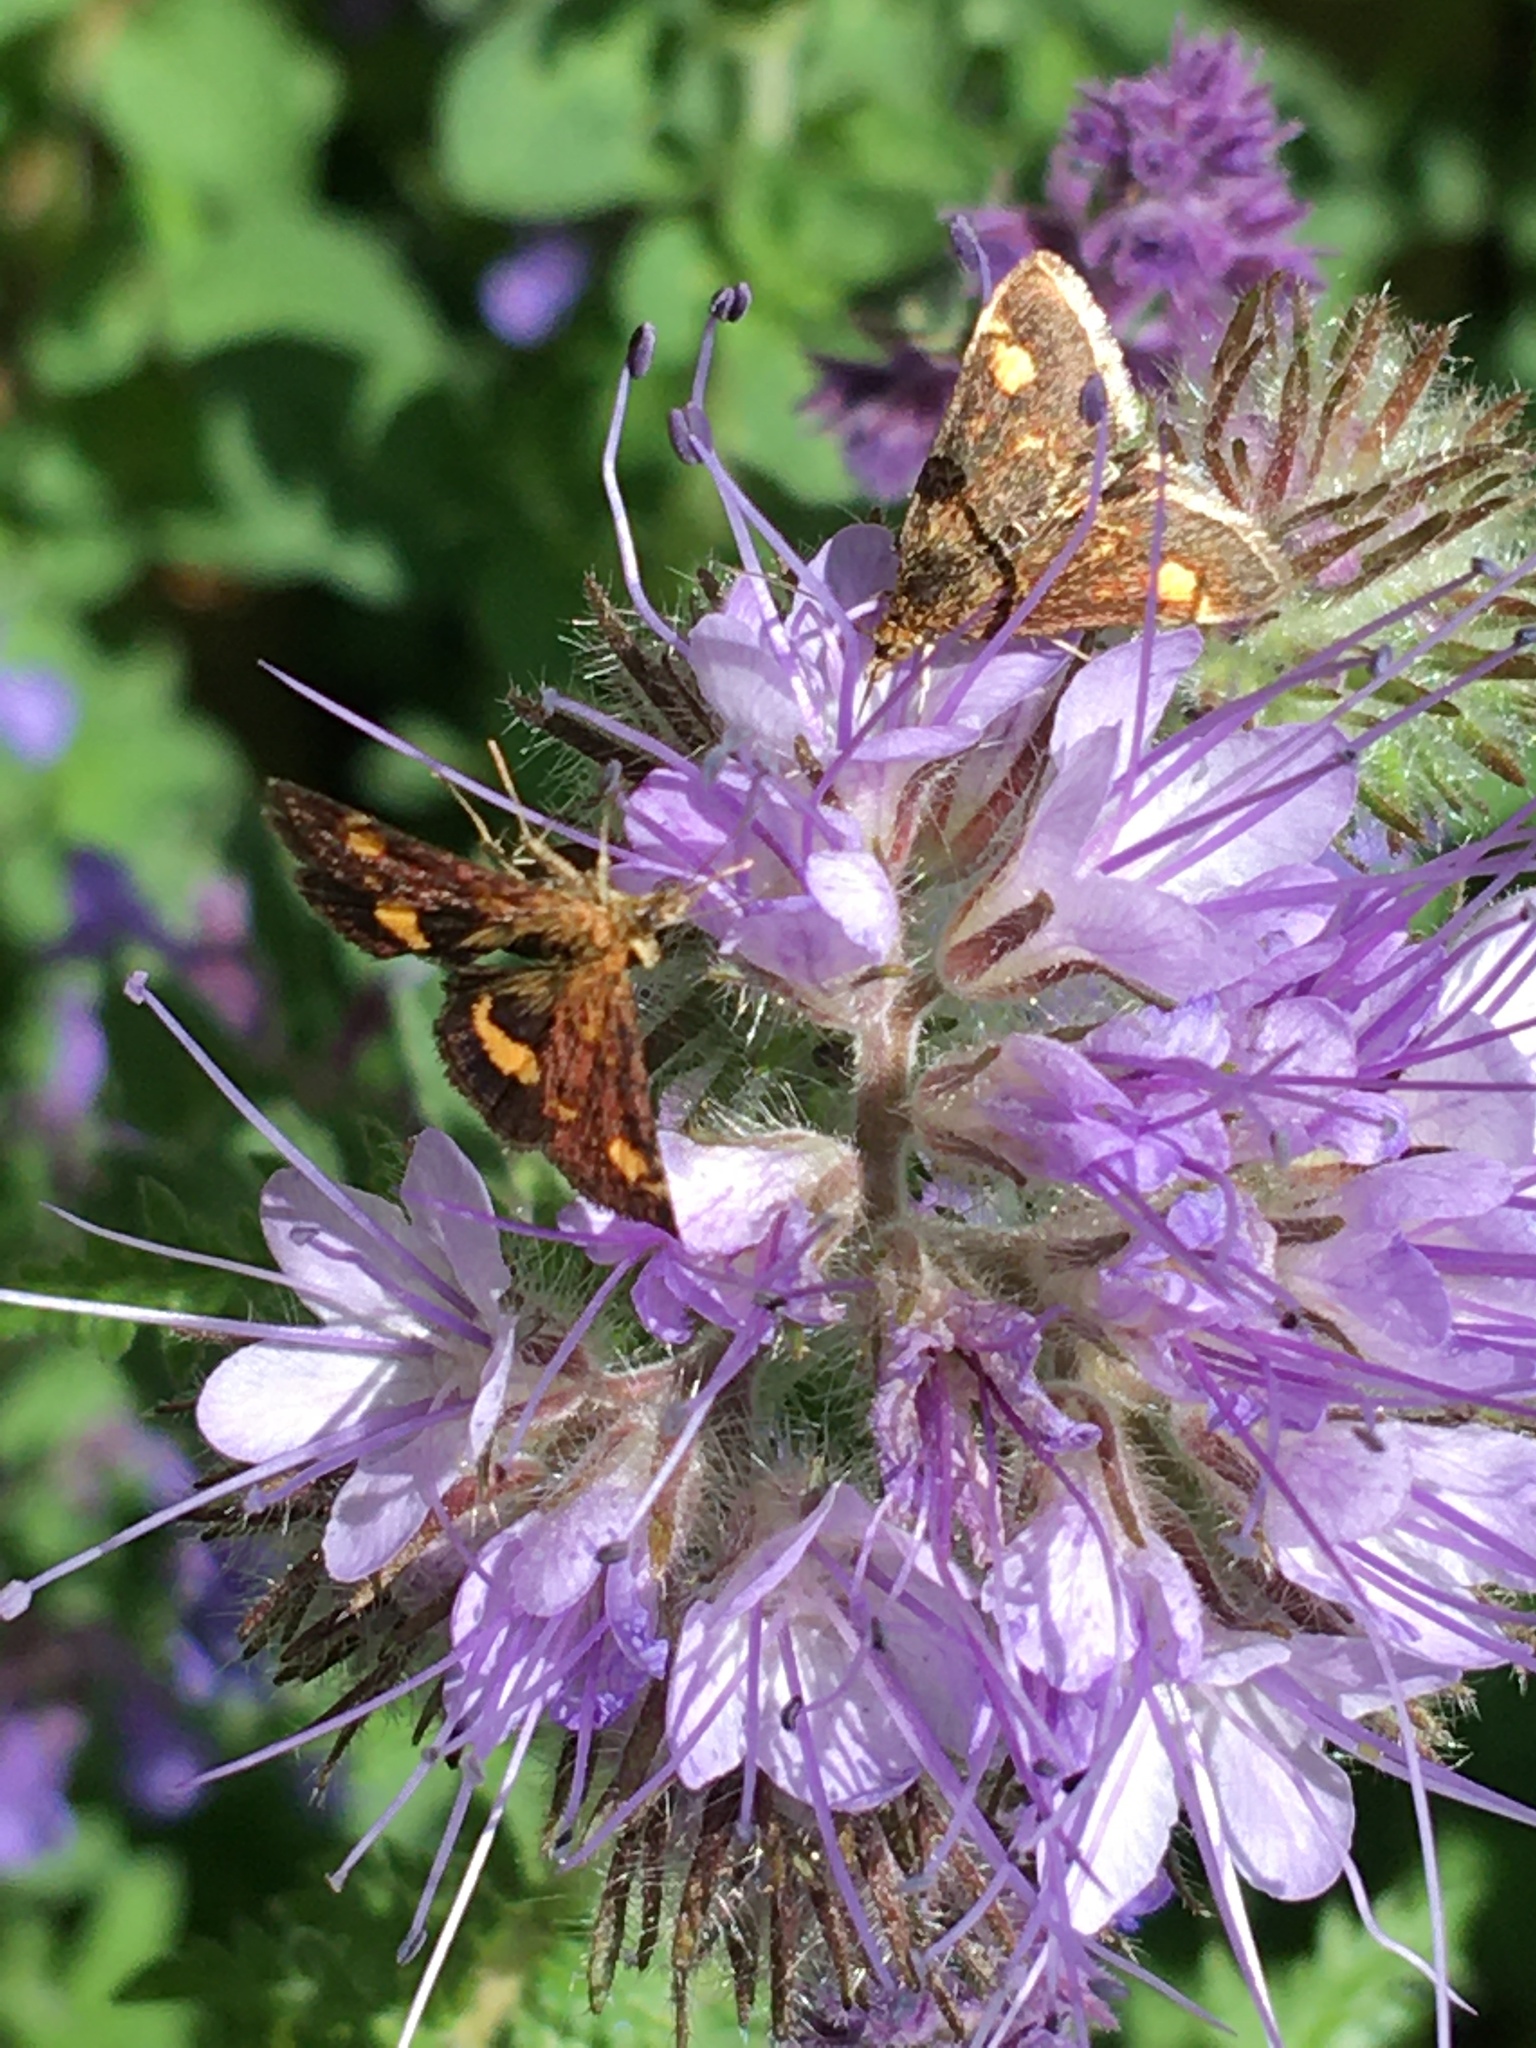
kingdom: Animalia
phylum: Arthropoda
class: Insecta
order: Lepidoptera
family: Crambidae
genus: Pyrausta
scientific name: Pyrausta aurata
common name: Small purple & gold
